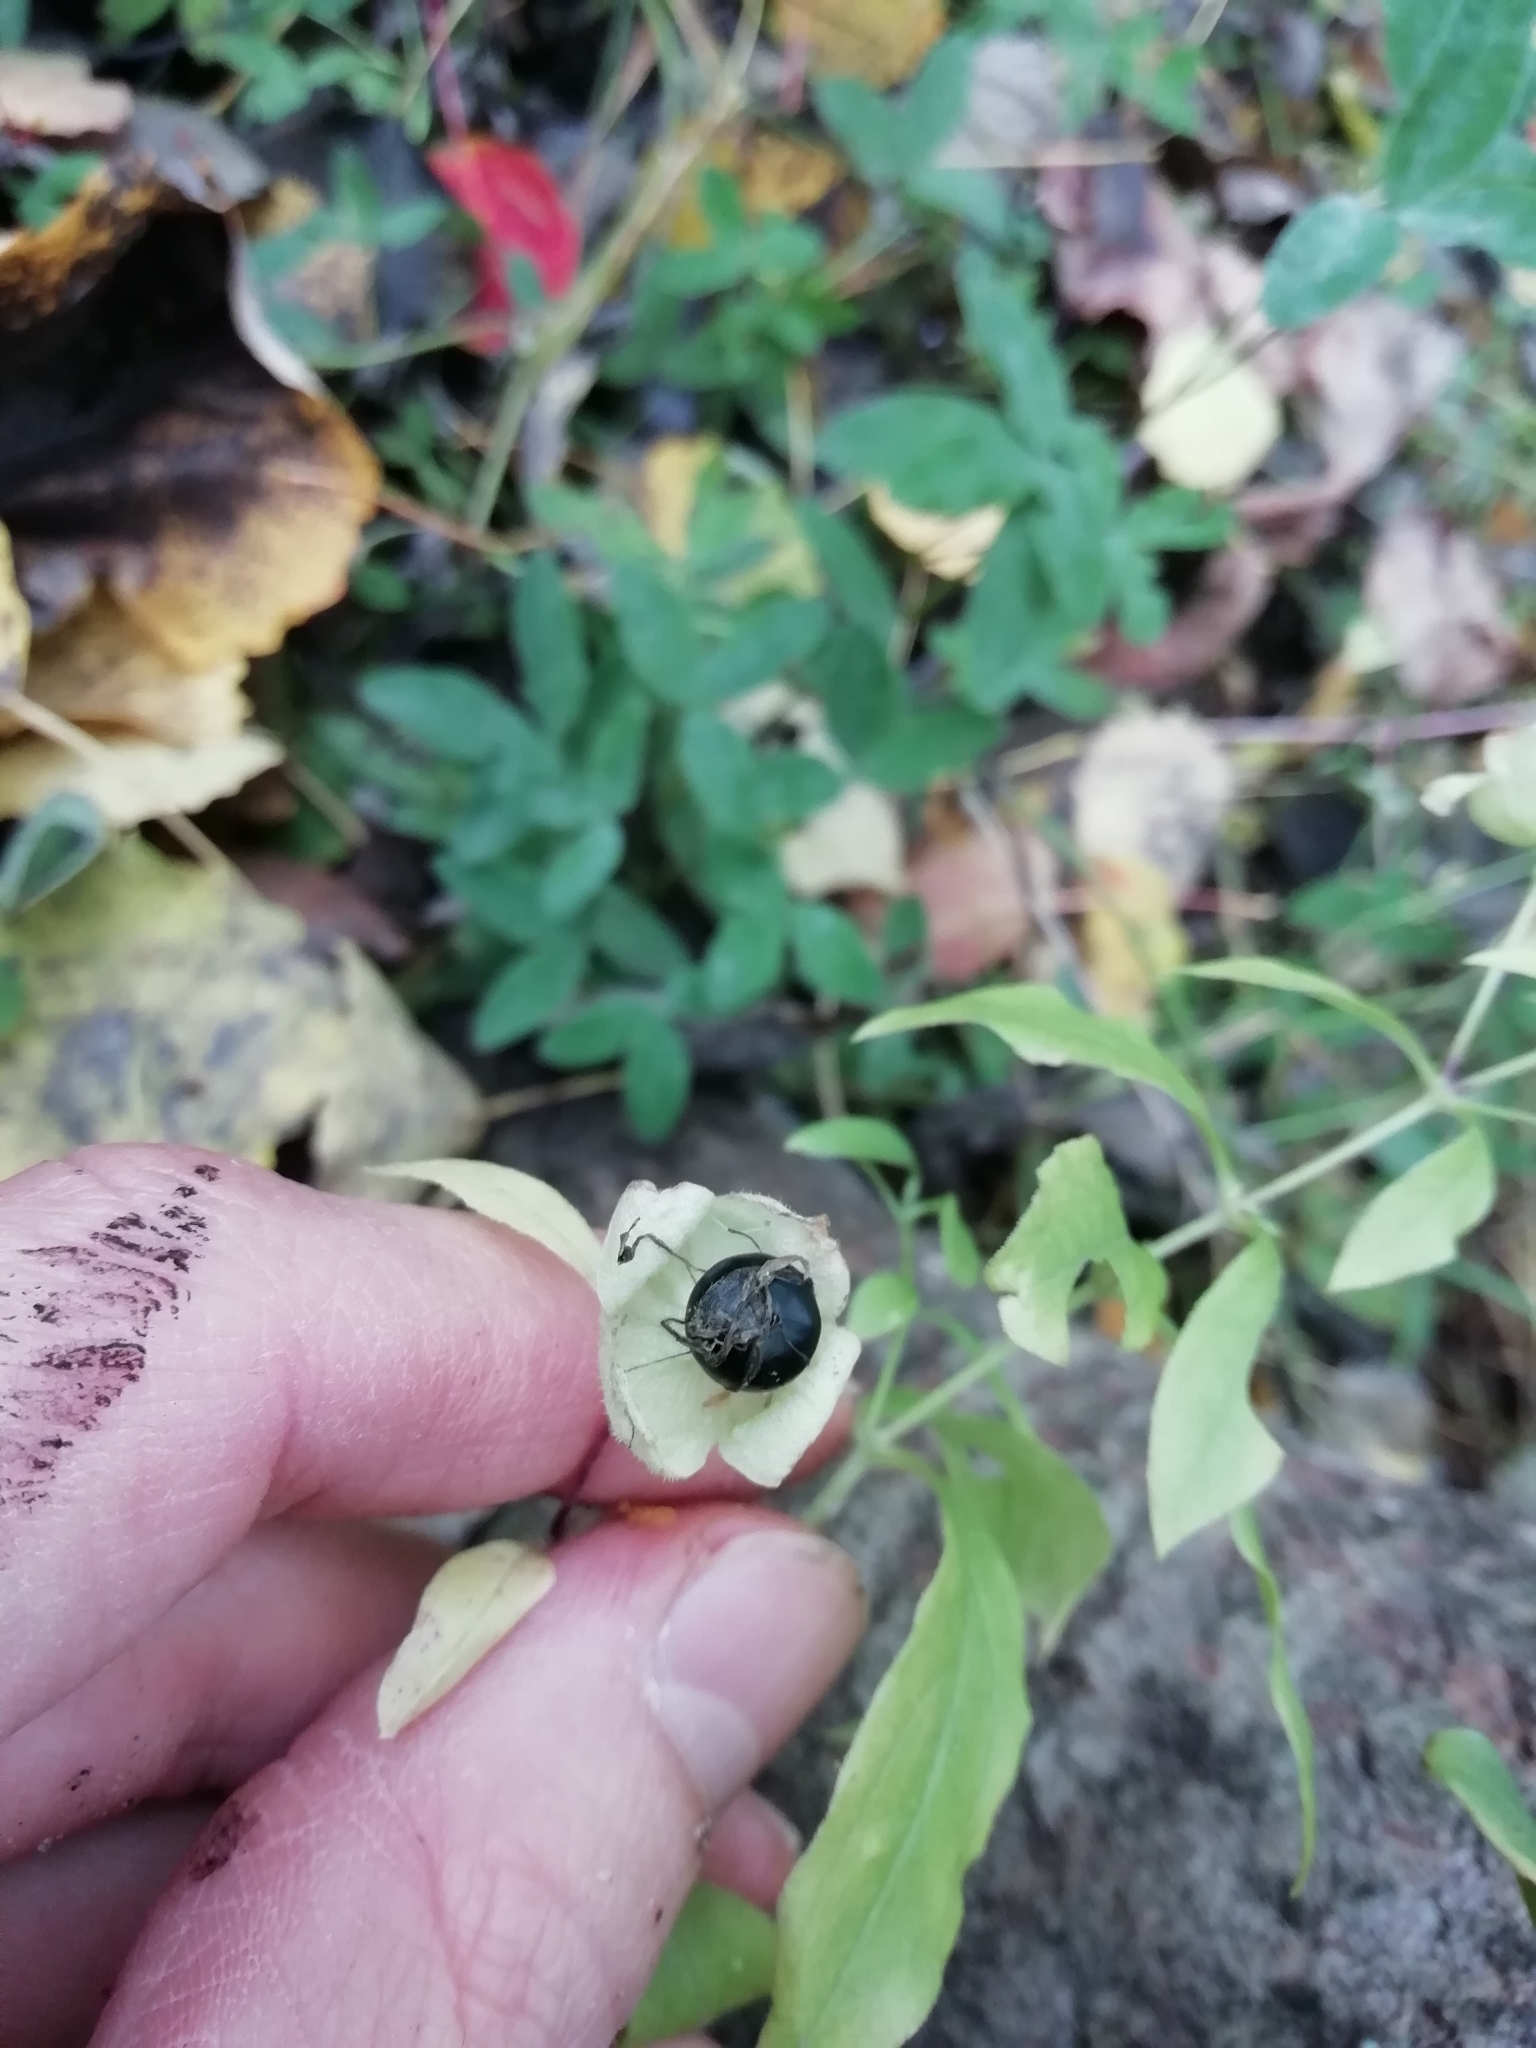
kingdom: Plantae
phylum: Tracheophyta
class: Magnoliopsida
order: Caryophyllales
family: Caryophyllaceae
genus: Silene
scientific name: Silene baccifera
